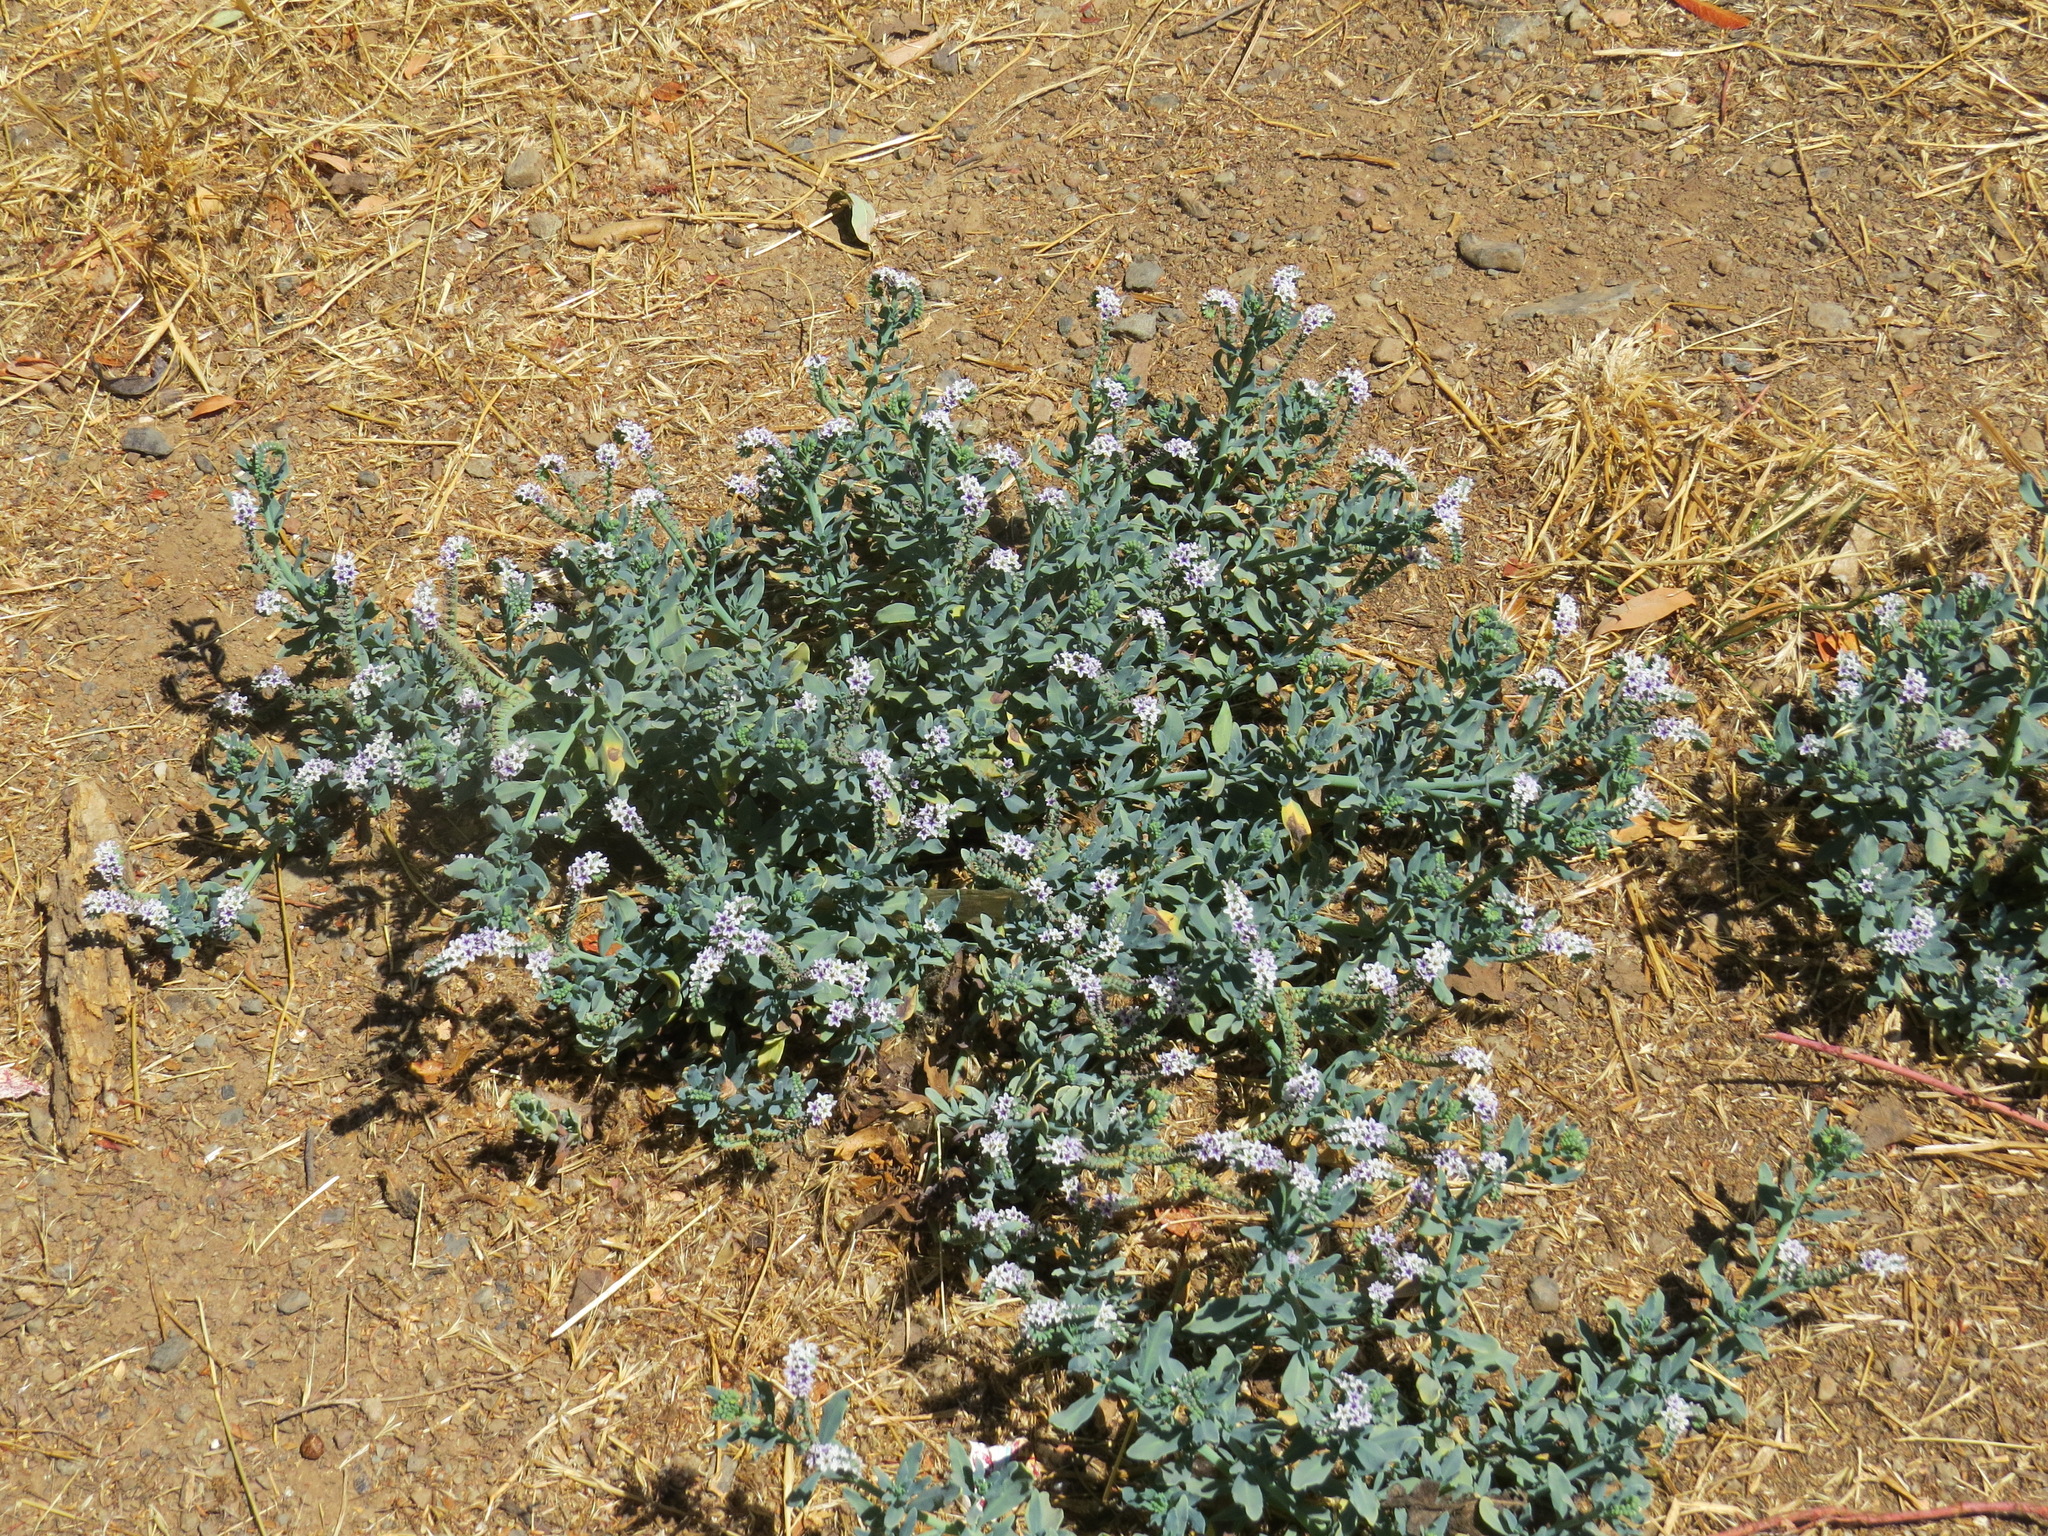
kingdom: Plantae
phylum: Tracheophyta
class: Magnoliopsida
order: Boraginales
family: Heliotropiaceae
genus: Heliotropium
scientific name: Heliotropium curassavicum
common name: Seaside heliotrope
